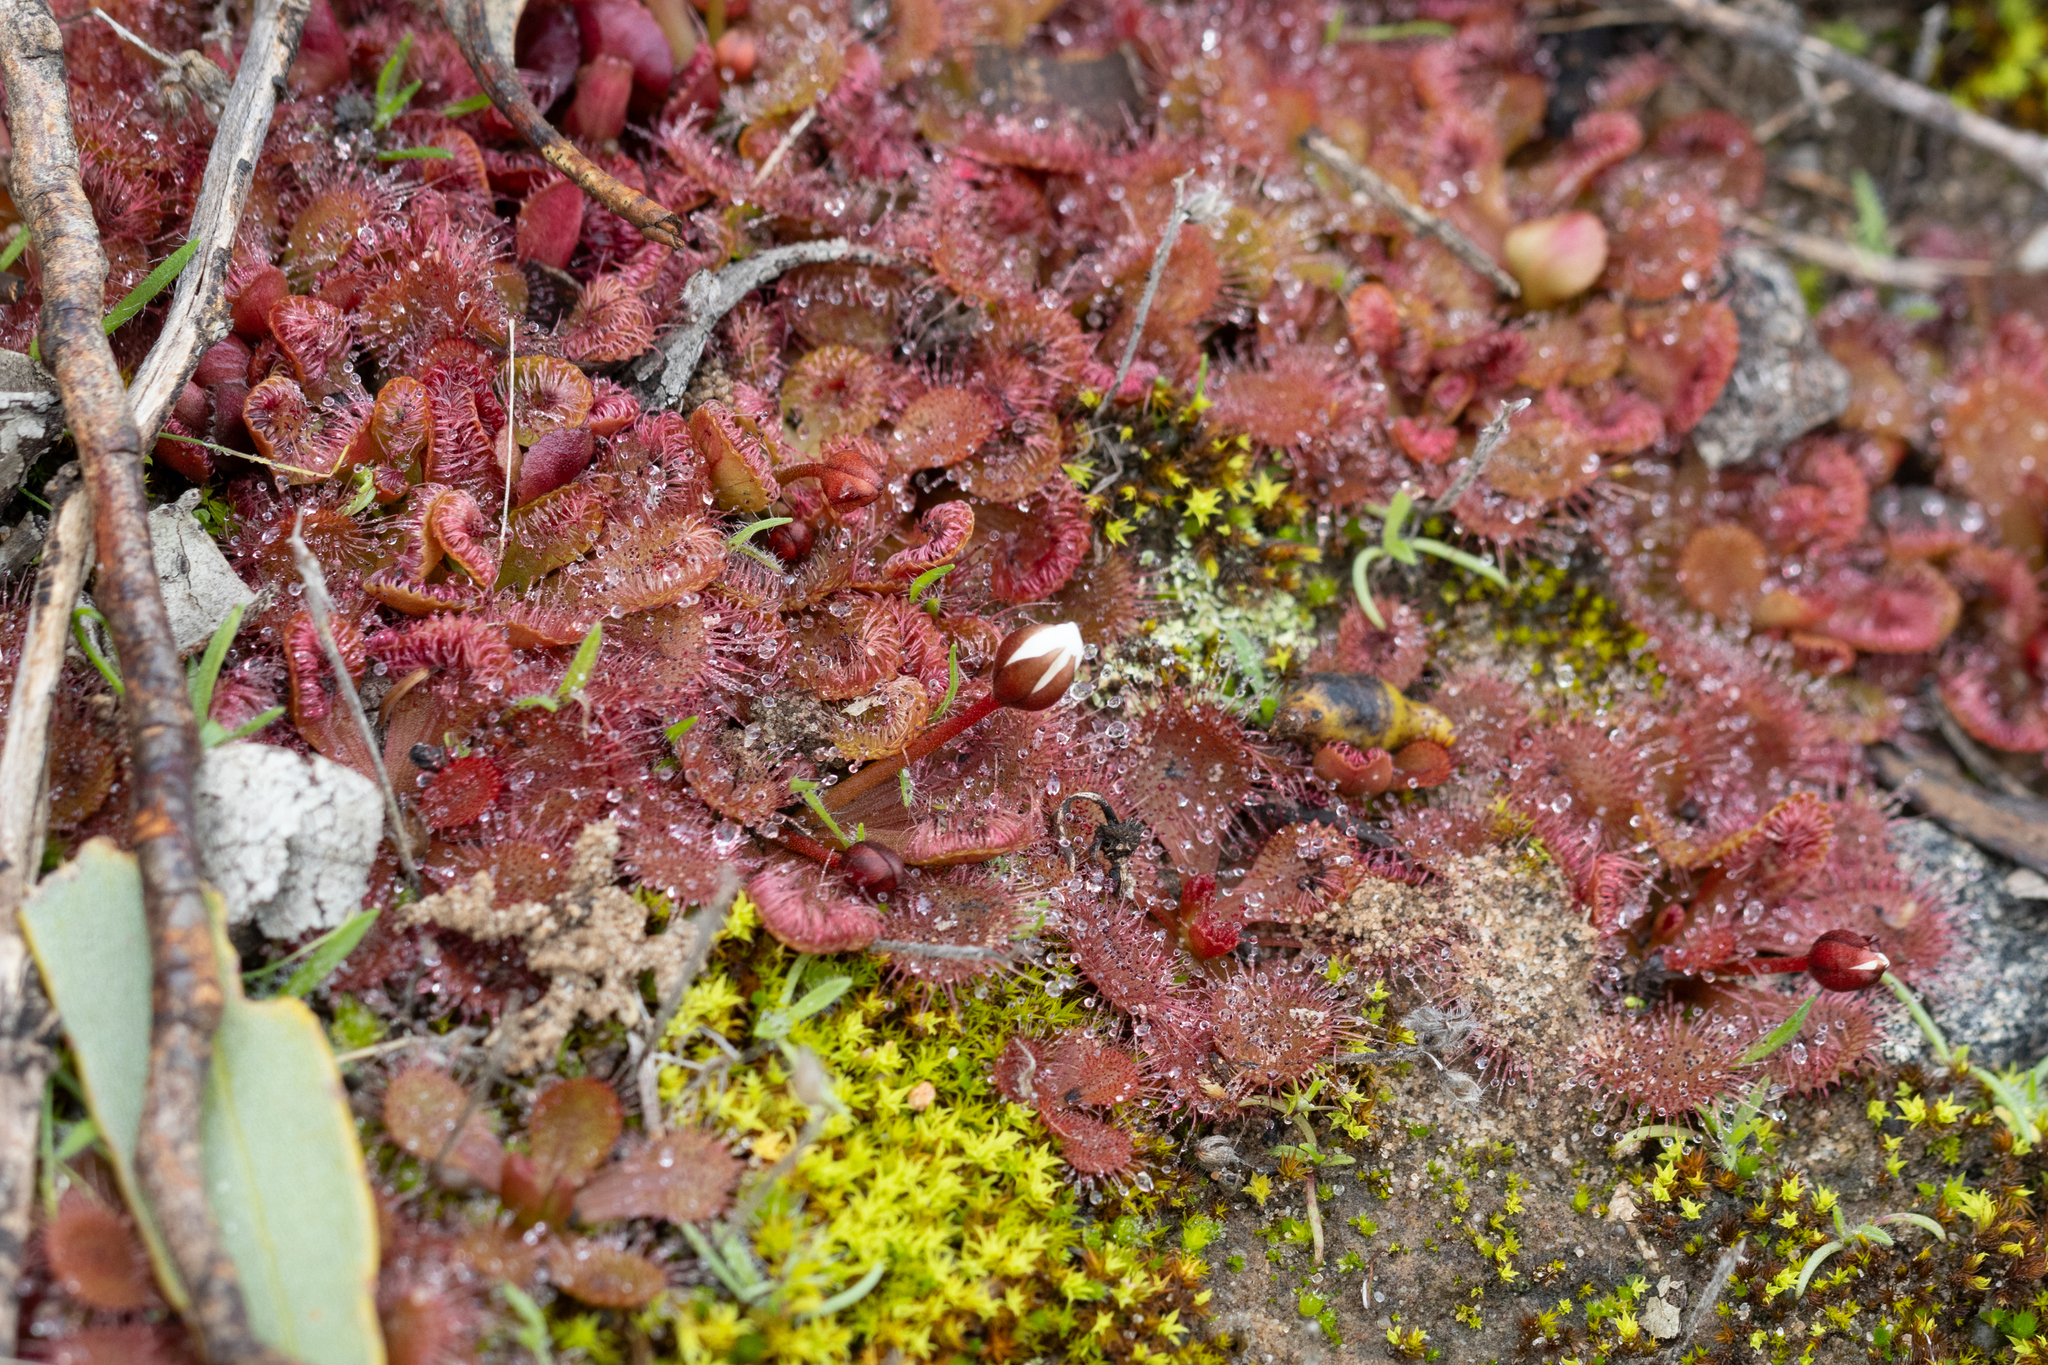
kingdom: Plantae
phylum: Tracheophyta
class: Magnoliopsida
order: Caryophyllales
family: Droseraceae
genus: Drosera
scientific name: Drosera aberrans
